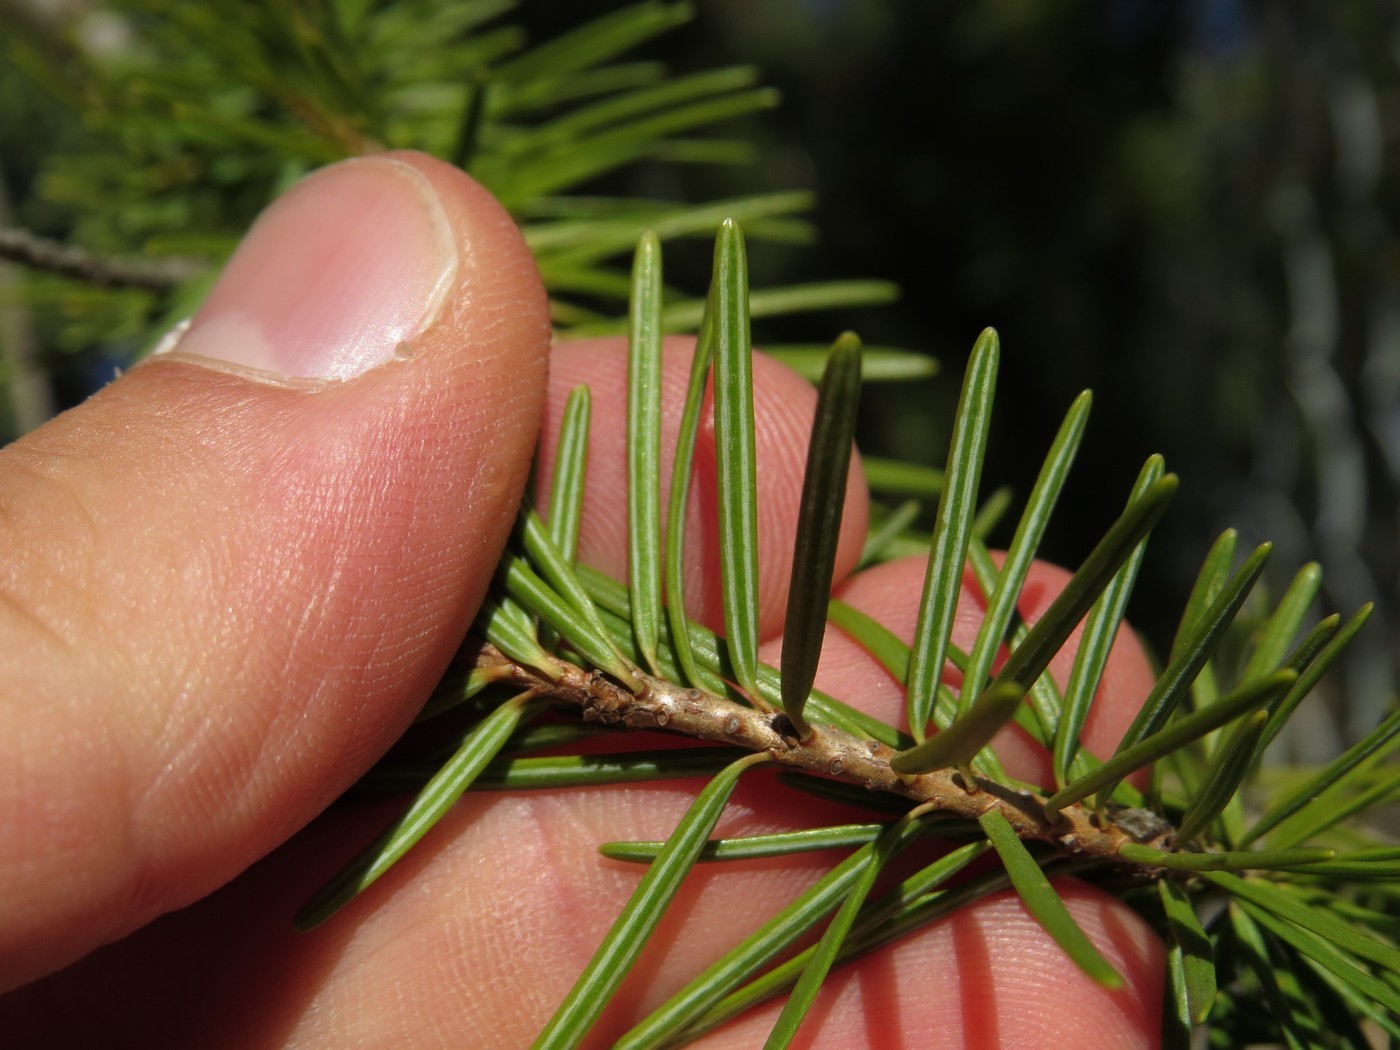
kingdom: Plantae
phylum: Tracheophyta
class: Pinopsida
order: Pinales
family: Pinaceae
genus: Pseudotsuga
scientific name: Pseudotsuga menziesii
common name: Douglas fir
